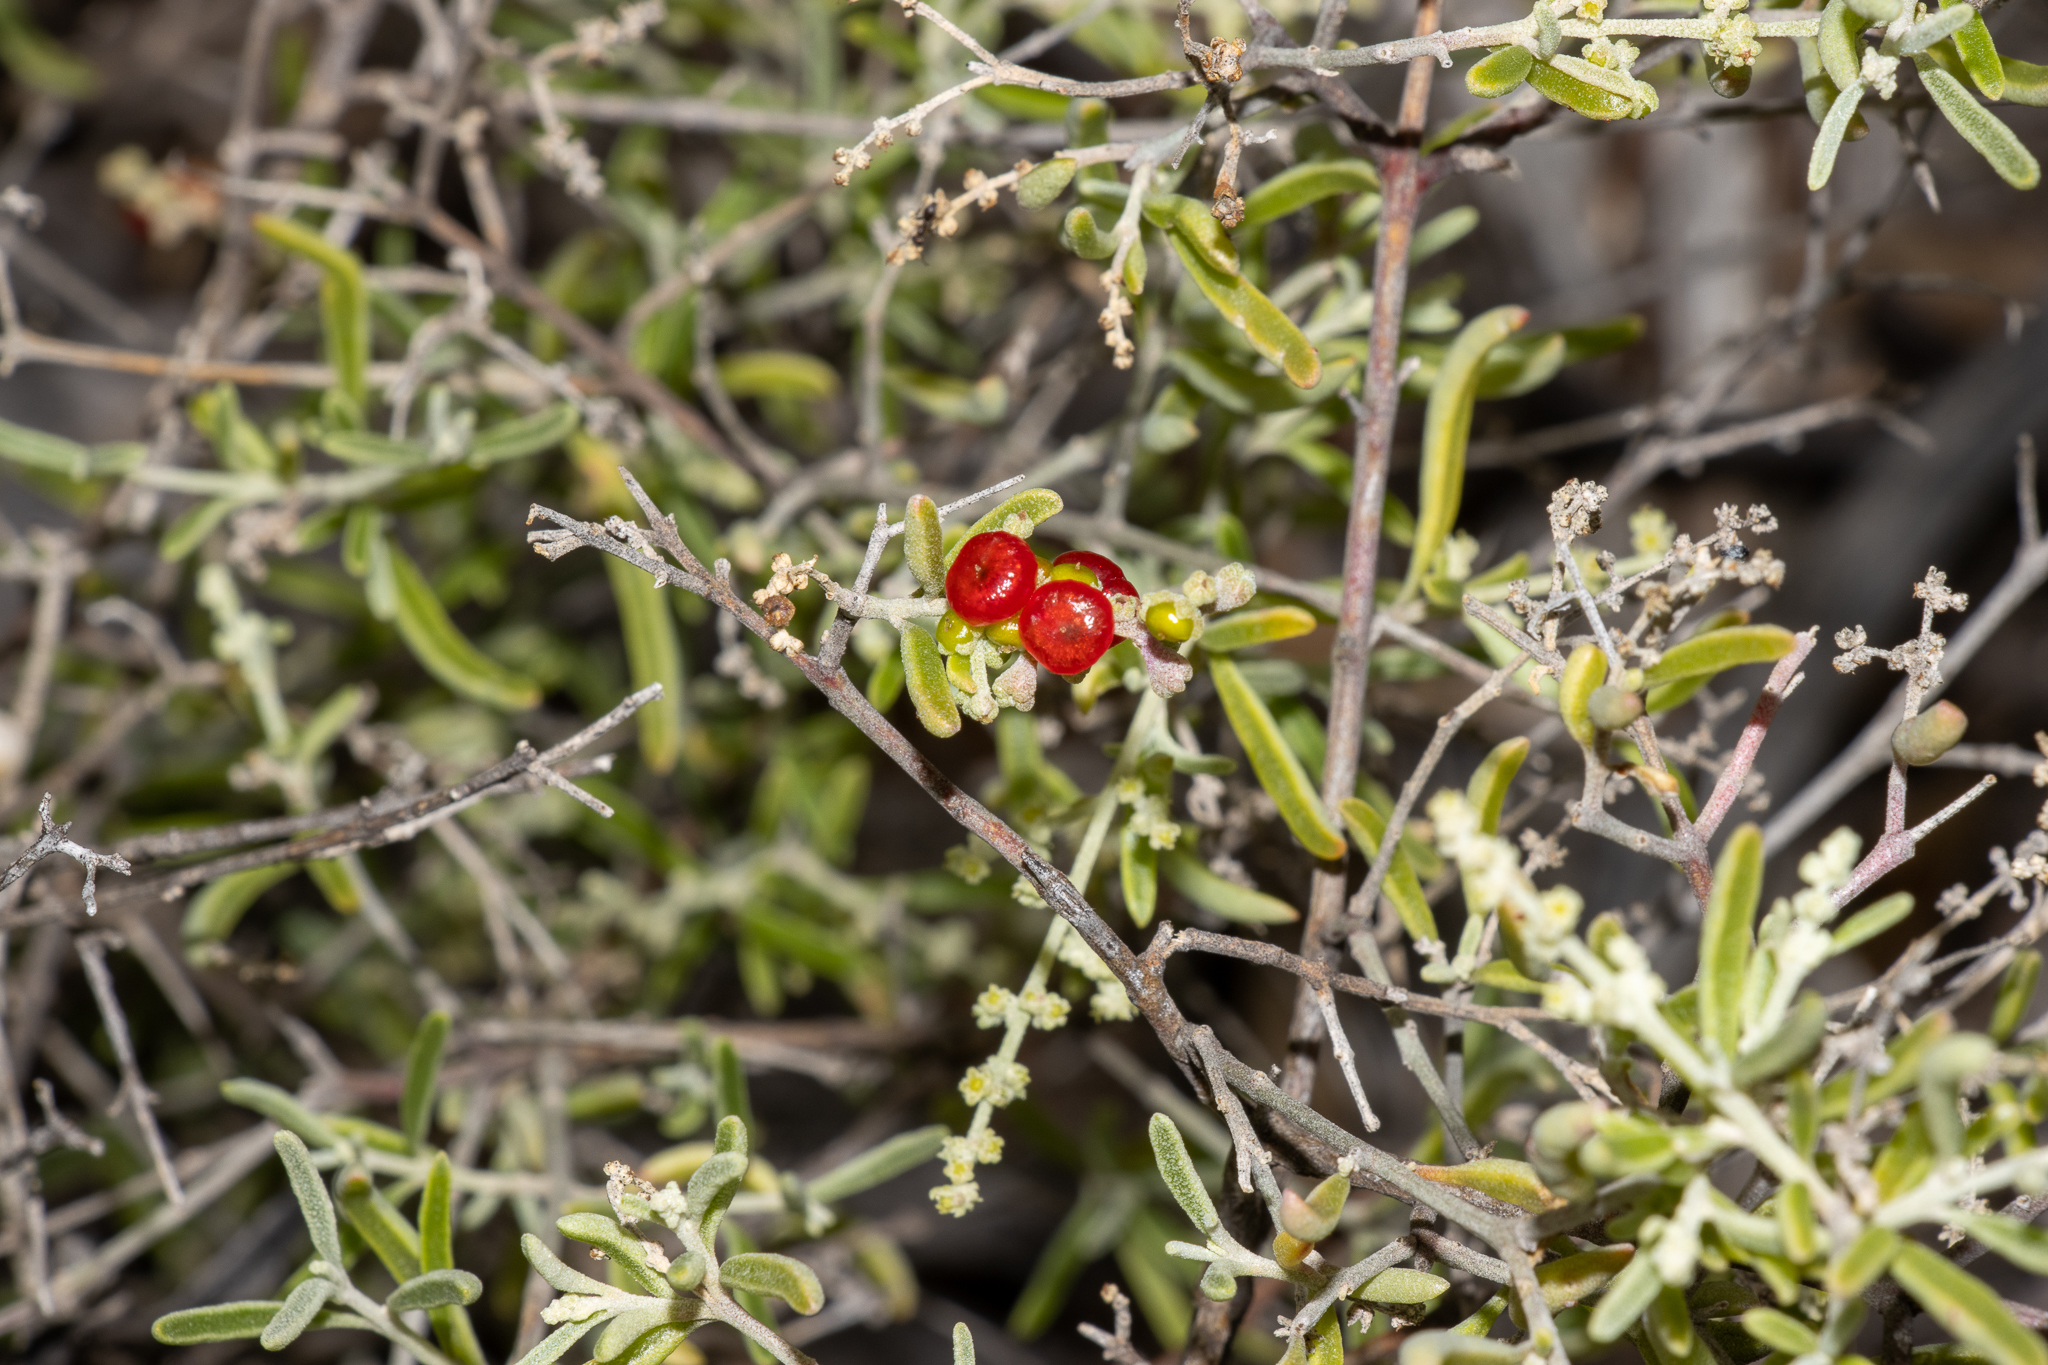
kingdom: Plantae
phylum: Tracheophyta
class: Magnoliopsida
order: Caryophyllales
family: Amaranthaceae
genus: Chenopodium
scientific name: Chenopodium wilsonii
